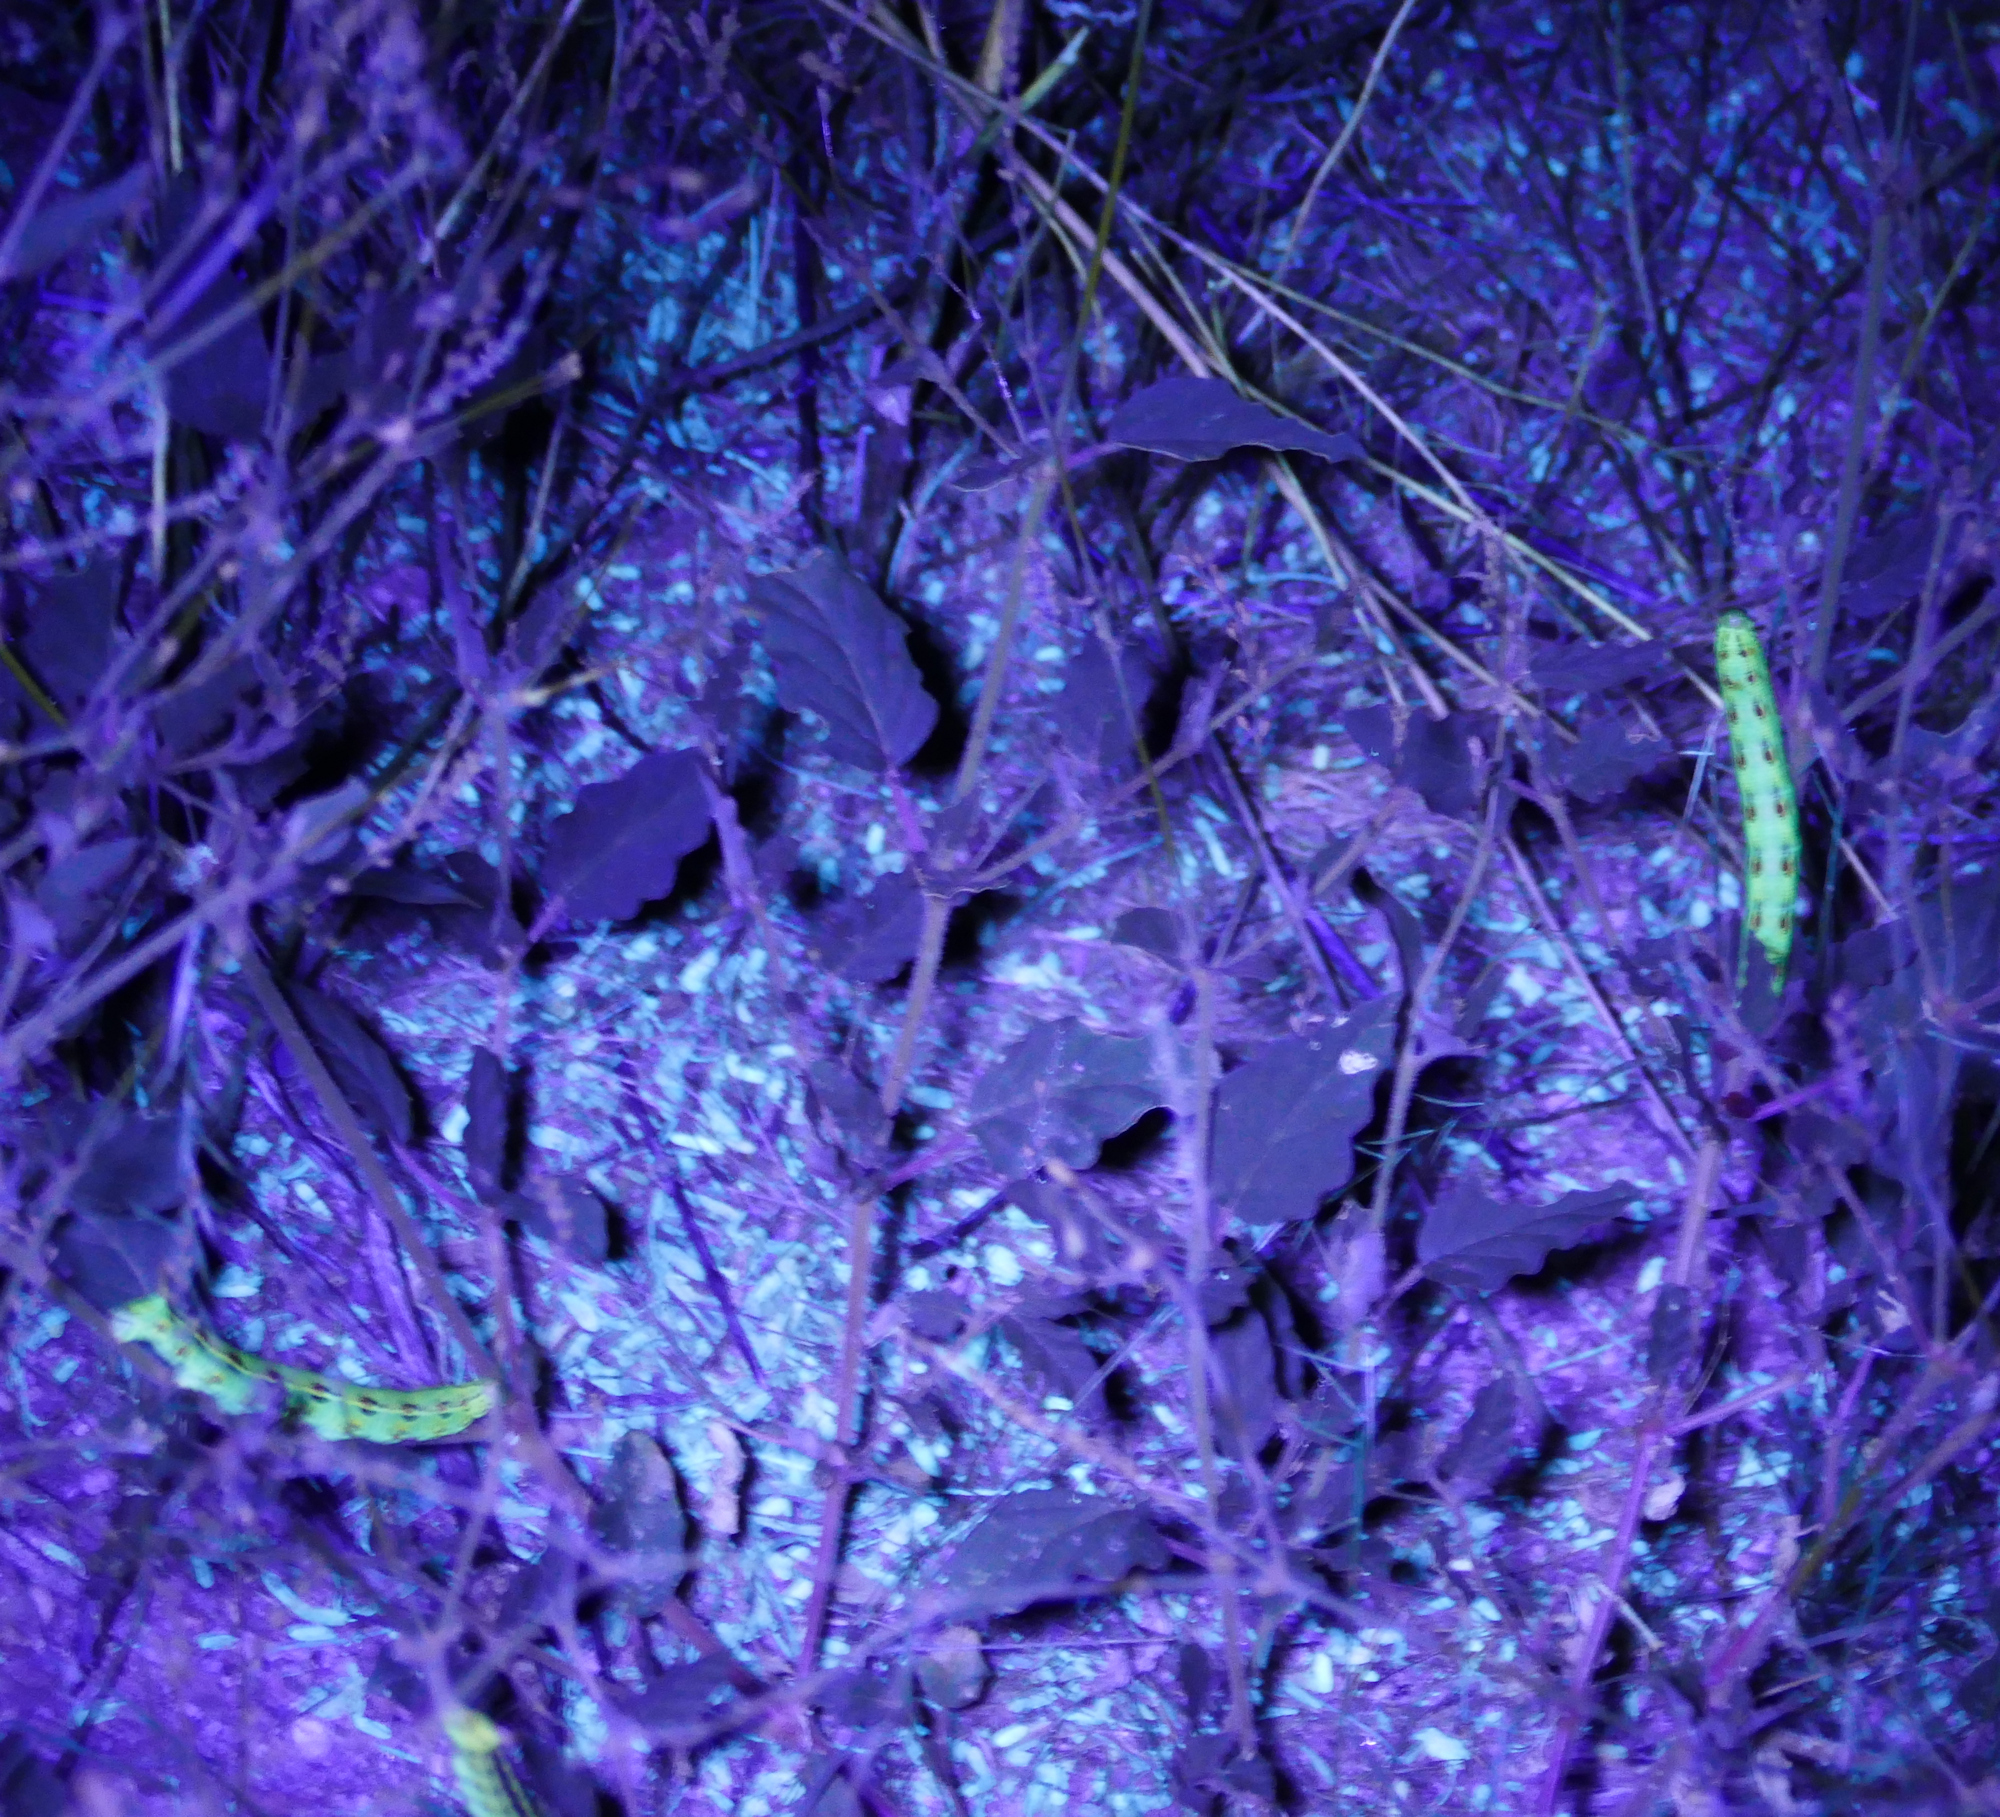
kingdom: Animalia
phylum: Arthropoda
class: Insecta
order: Lepidoptera
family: Sphingidae
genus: Hyles
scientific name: Hyles lineata
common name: White-lined sphinx
